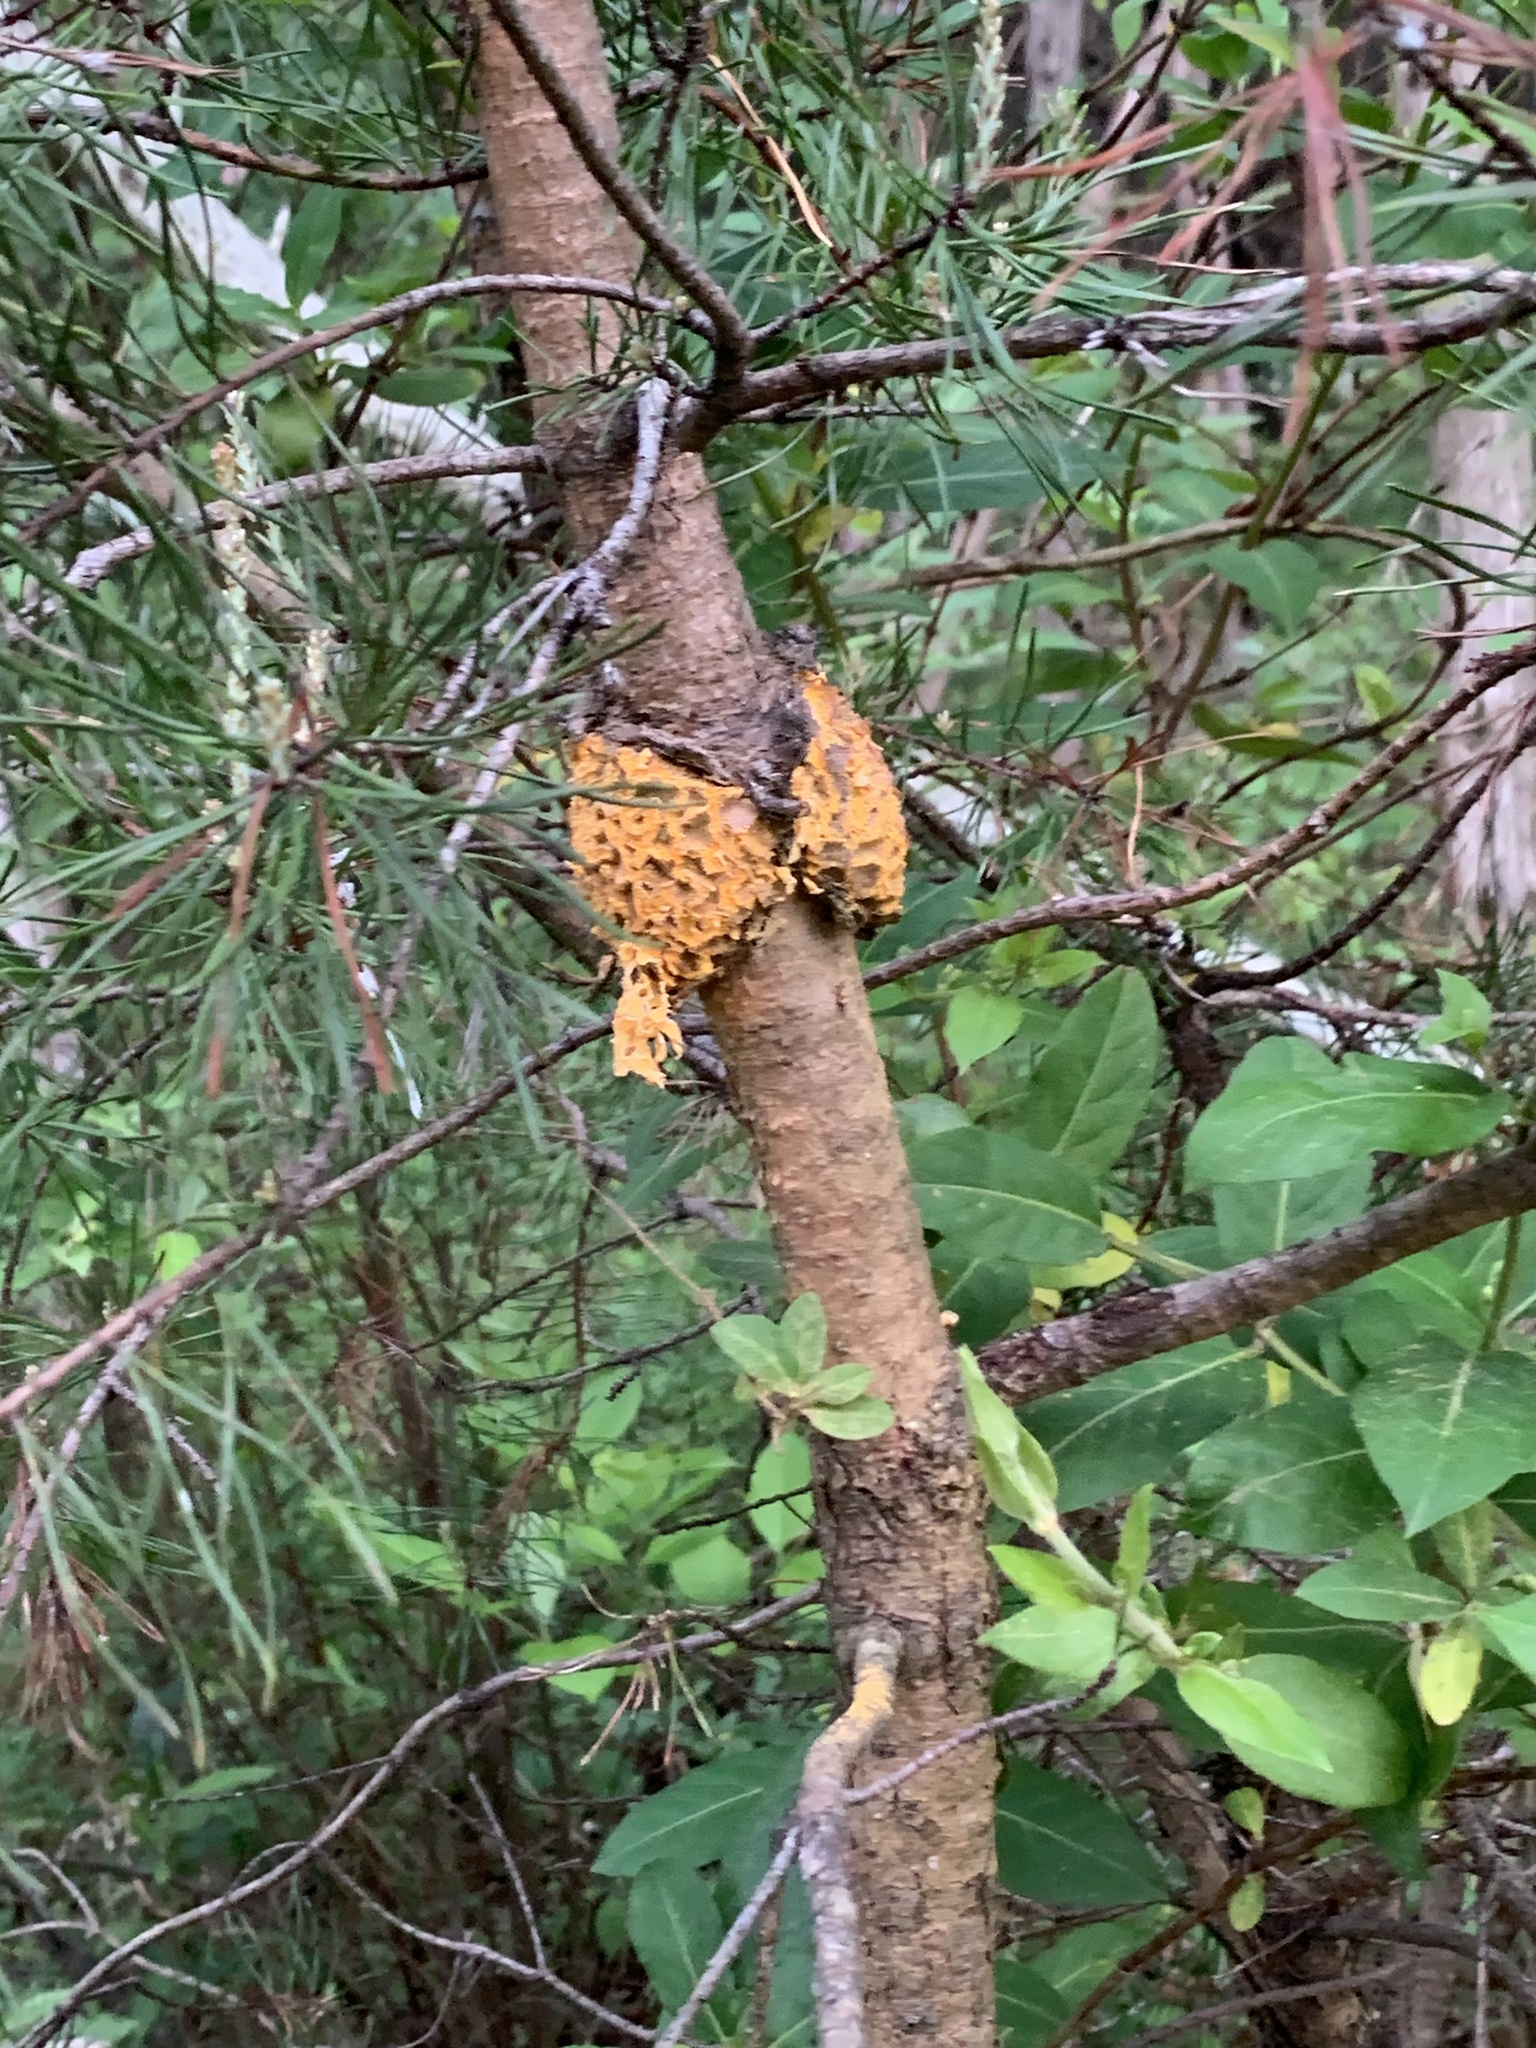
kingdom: Fungi
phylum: Basidiomycota
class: Pucciniomycetes
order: Pucciniales
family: Cronartiaceae
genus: Cronartium
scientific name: Cronartium quercuum
